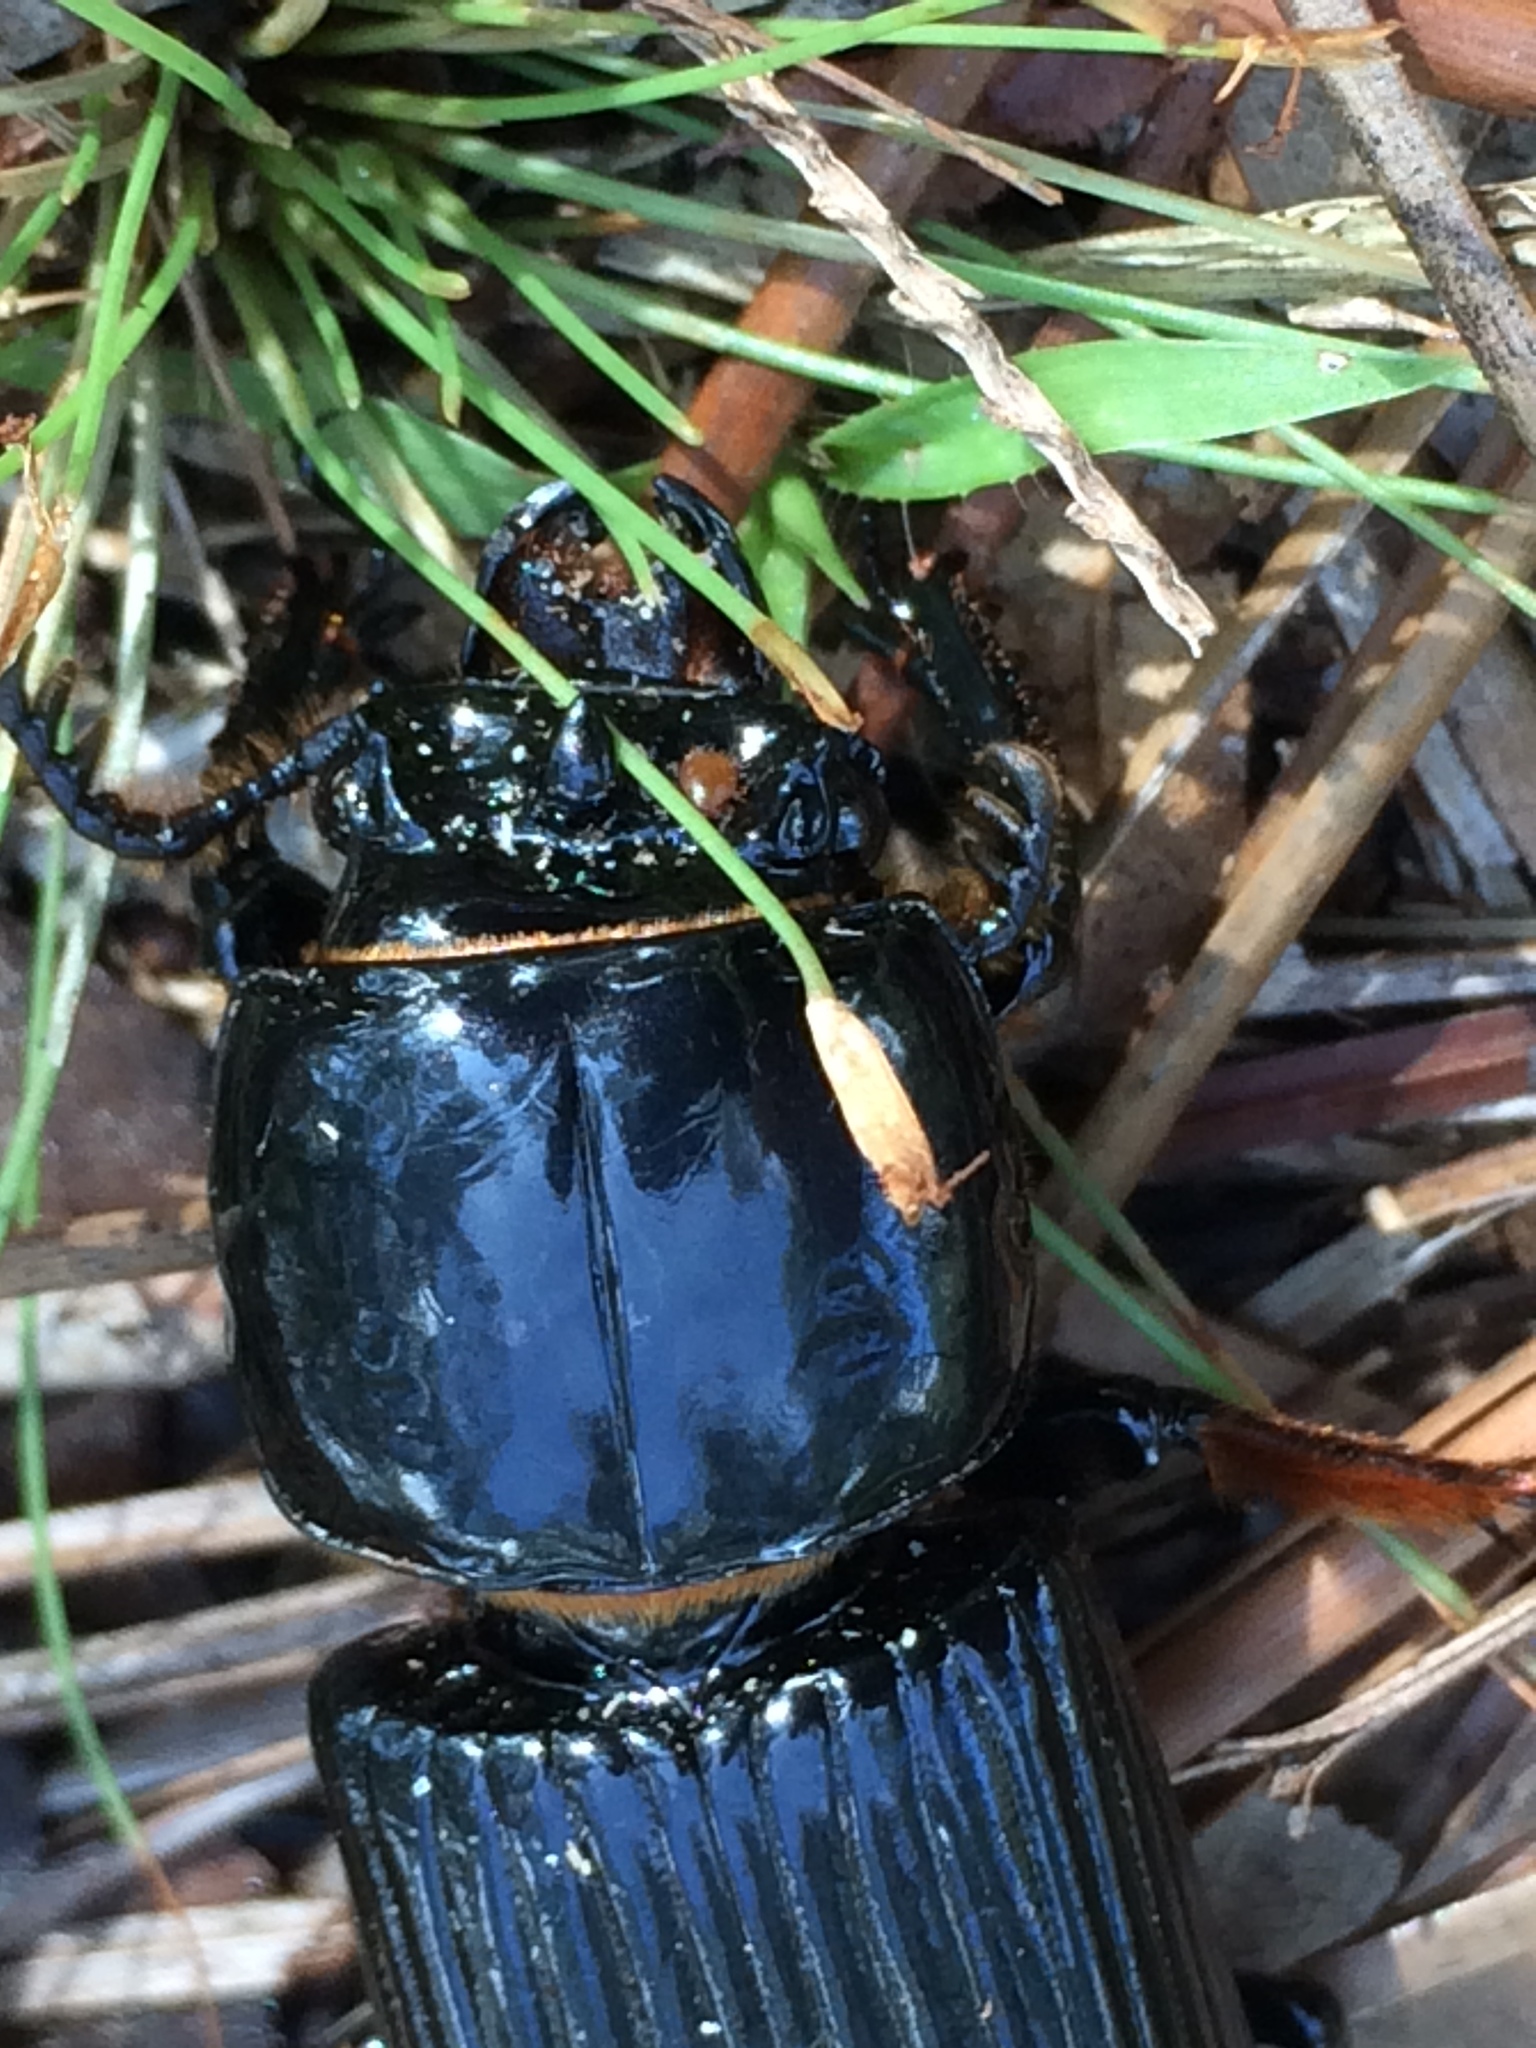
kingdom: Animalia
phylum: Arthropoda
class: Insecta
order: Coleoptera
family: Passalidae
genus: Odontotaenius
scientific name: Odontotaenius disjunctus
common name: Patent leather beetle
